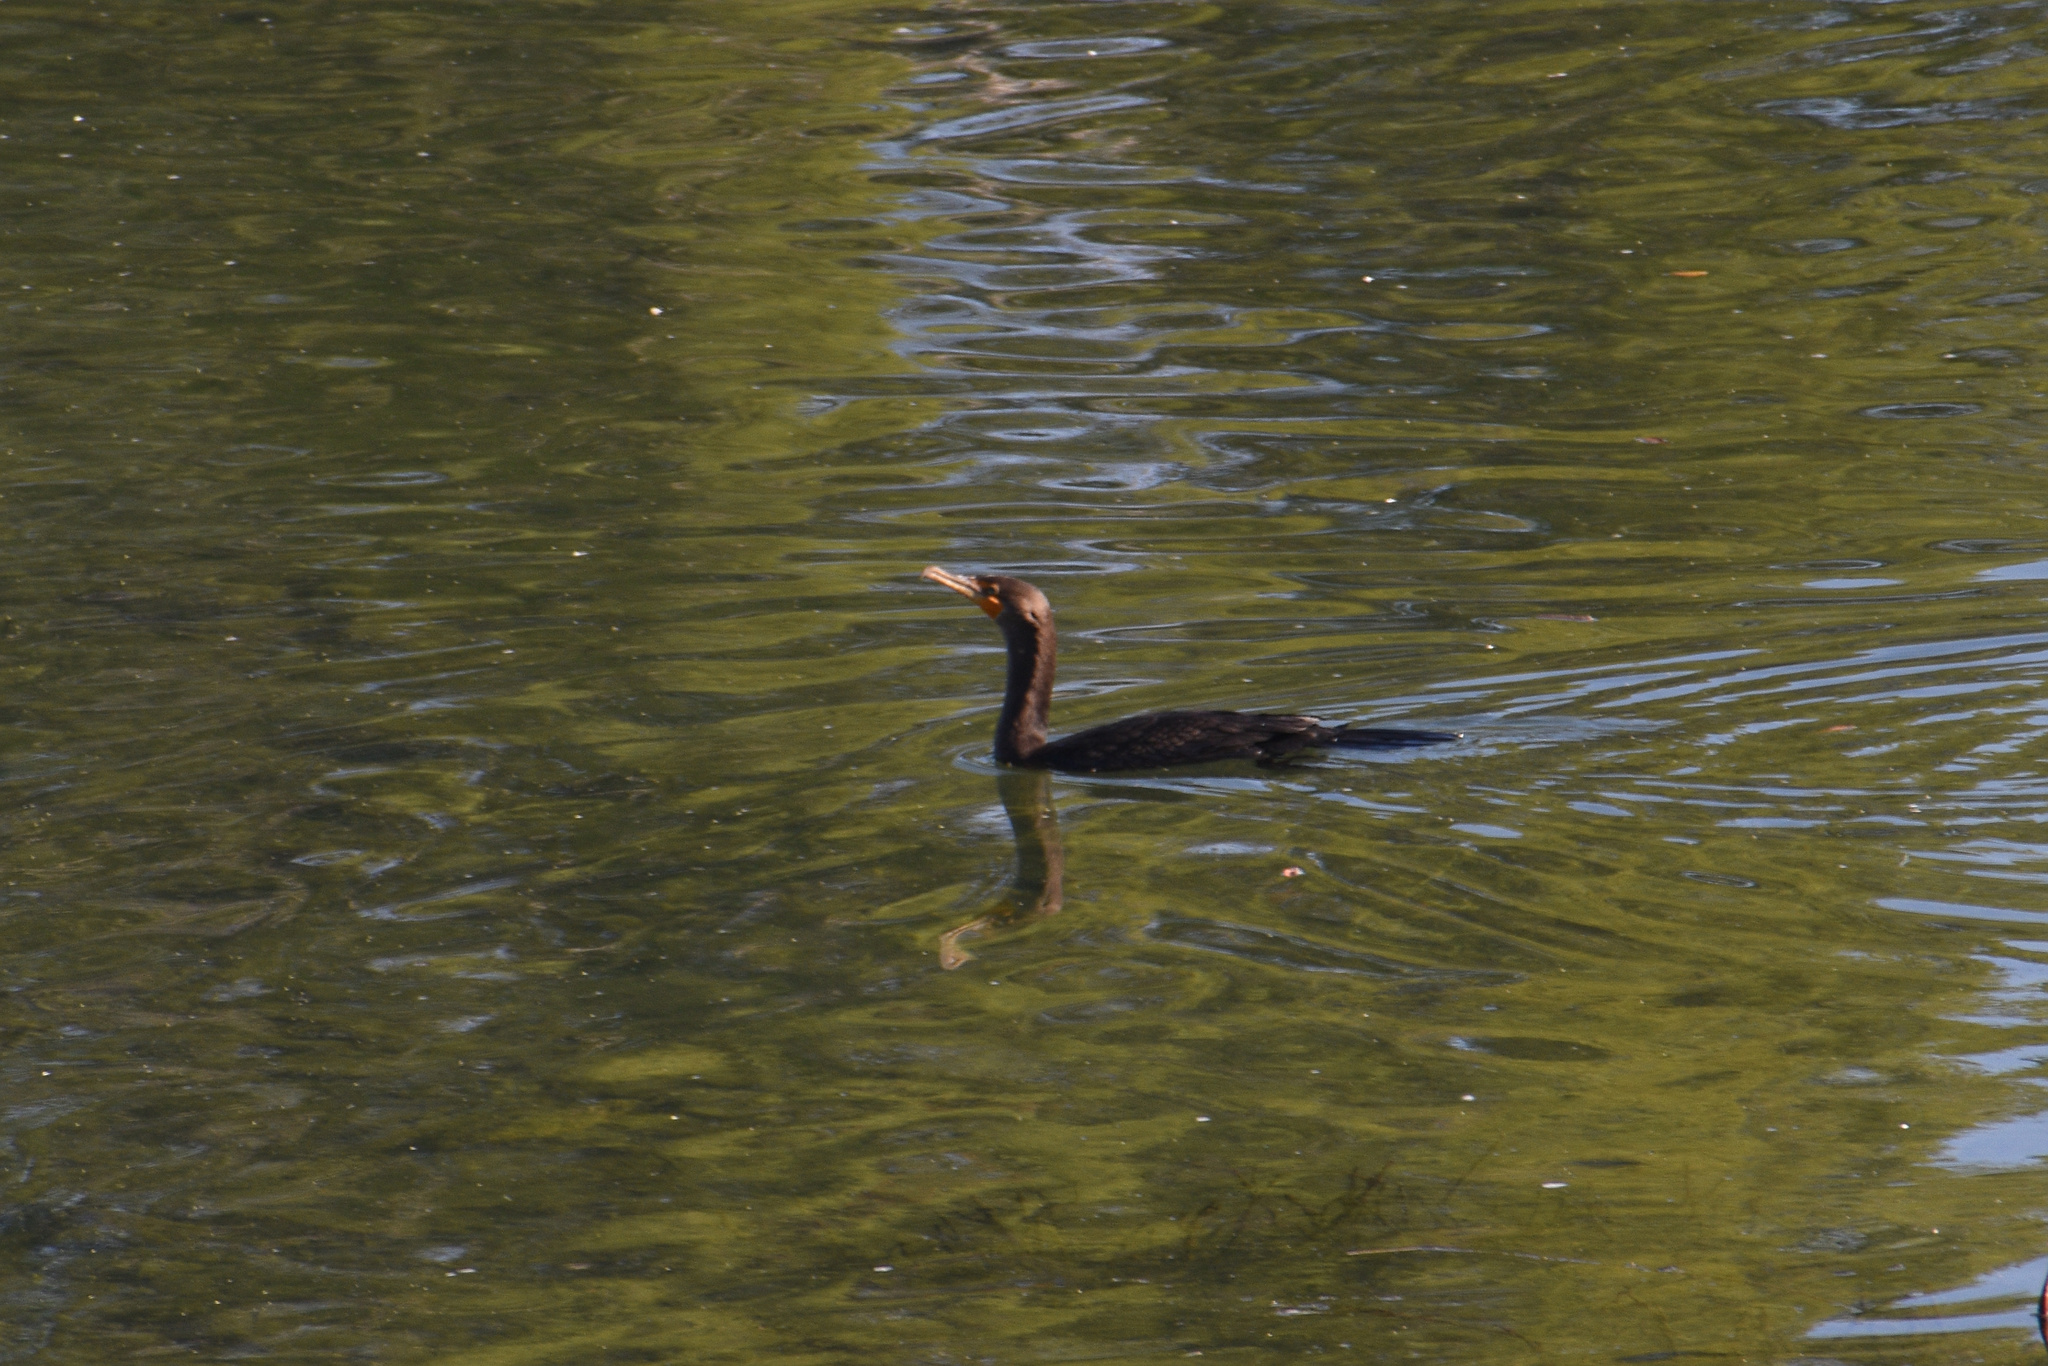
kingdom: Animalia
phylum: Chordata
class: Aves
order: Suliformes
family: Phalacrocoracidae
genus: Phalacrocorax
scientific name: Phalacrocorax auritus
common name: Double-crested cormorant
